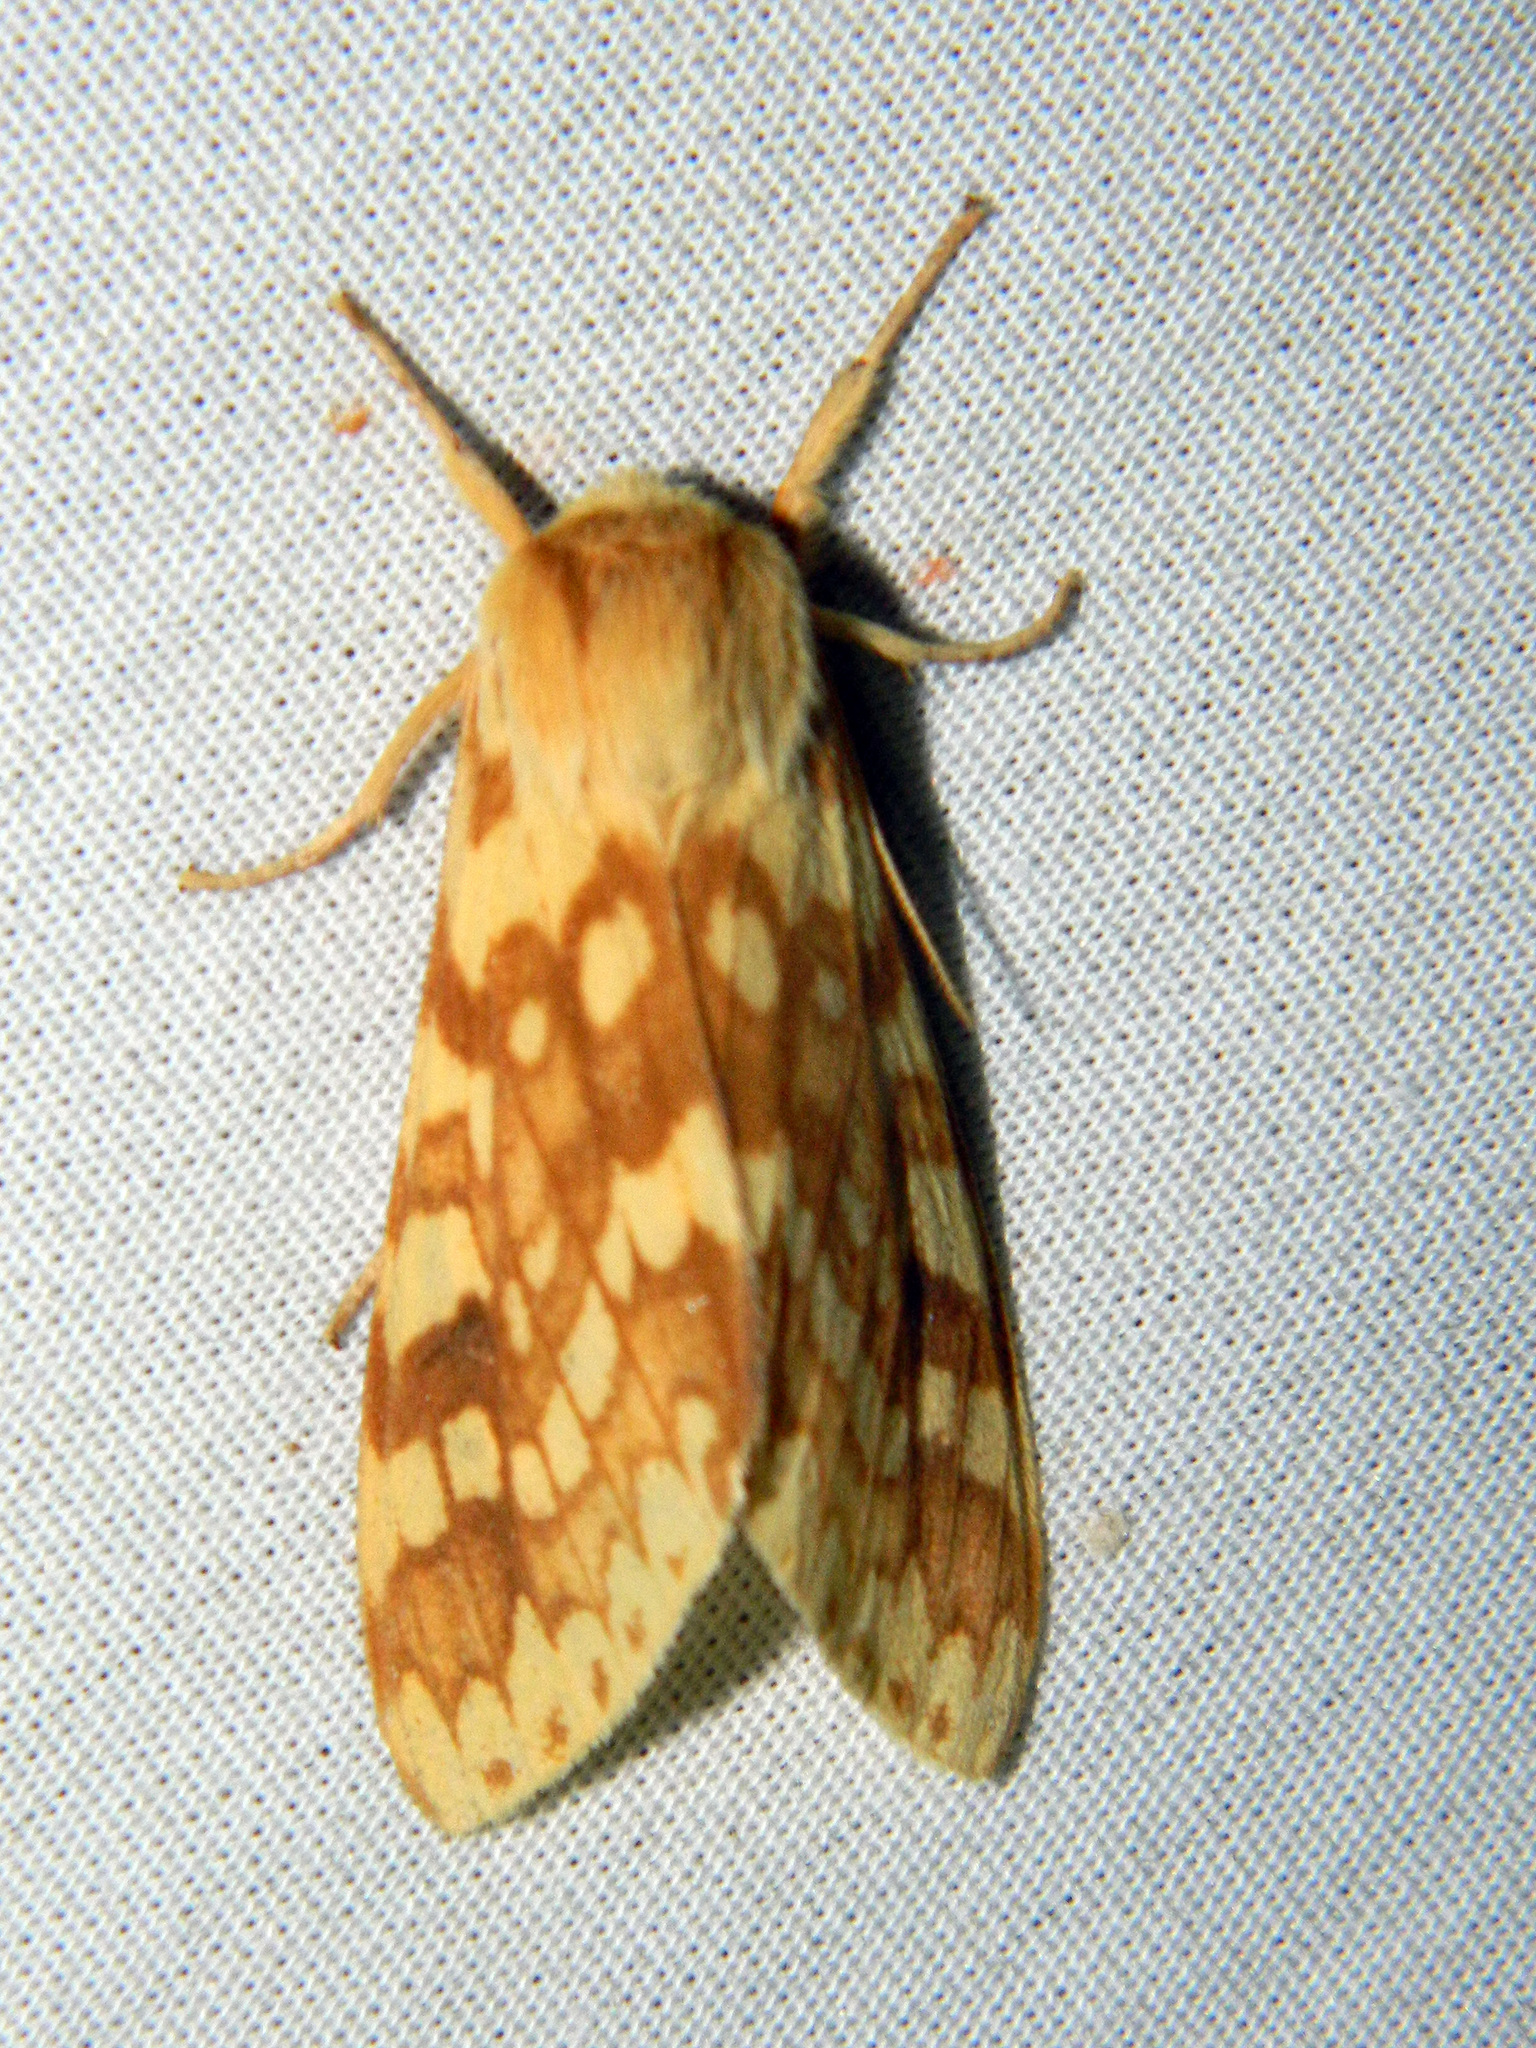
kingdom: Animalia
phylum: Arthropoda
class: Insecta
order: Lepidoptera
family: Erebidae
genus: Lophocampa
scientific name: Lophocampa maculata
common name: Spotted tussock moth
